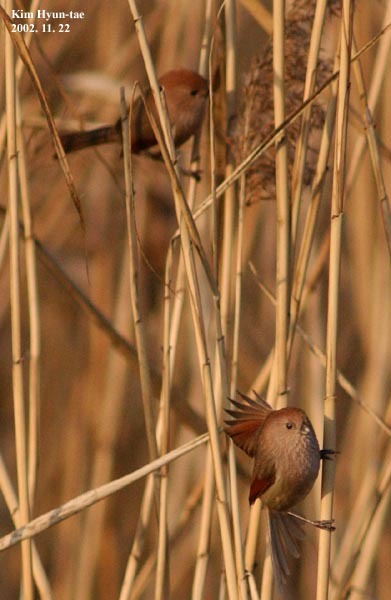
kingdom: Animalia
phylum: Chordata
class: Aves
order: Passeriformes
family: Sylviidae
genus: Sinosuthora
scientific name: Sinosuthora webbiana
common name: Vinous-throated parrotbill
